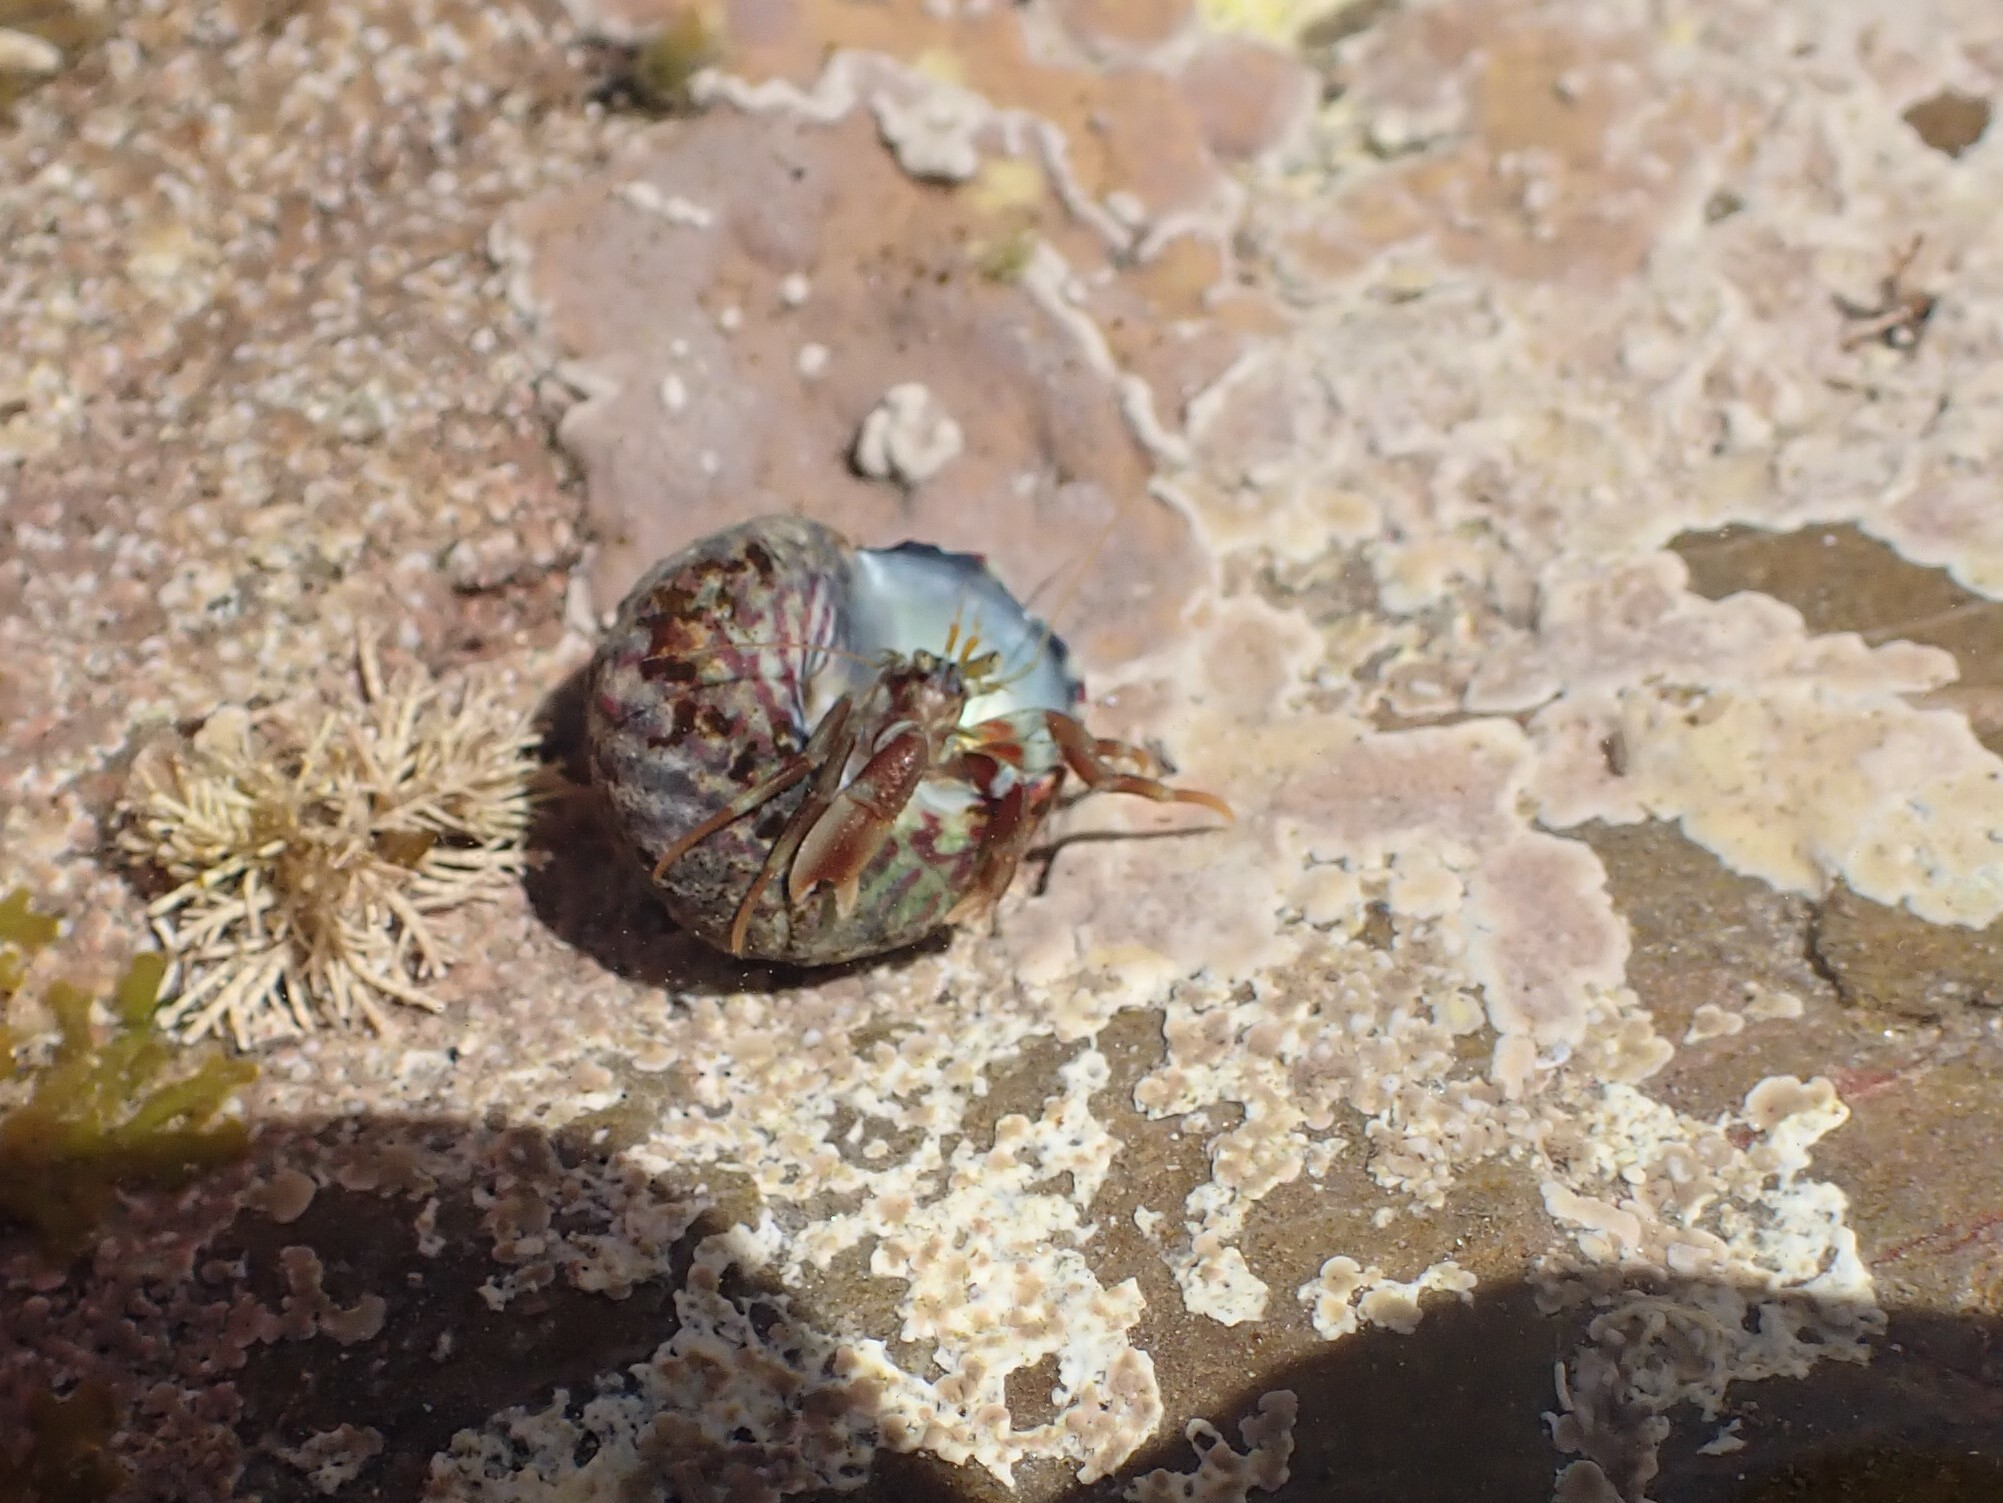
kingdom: Animalia
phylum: Arthropoda
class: Malacostraca
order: Decapoda
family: Paguridae
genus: Pagurus
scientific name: Pagurus bernhardus
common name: Hermit crab
